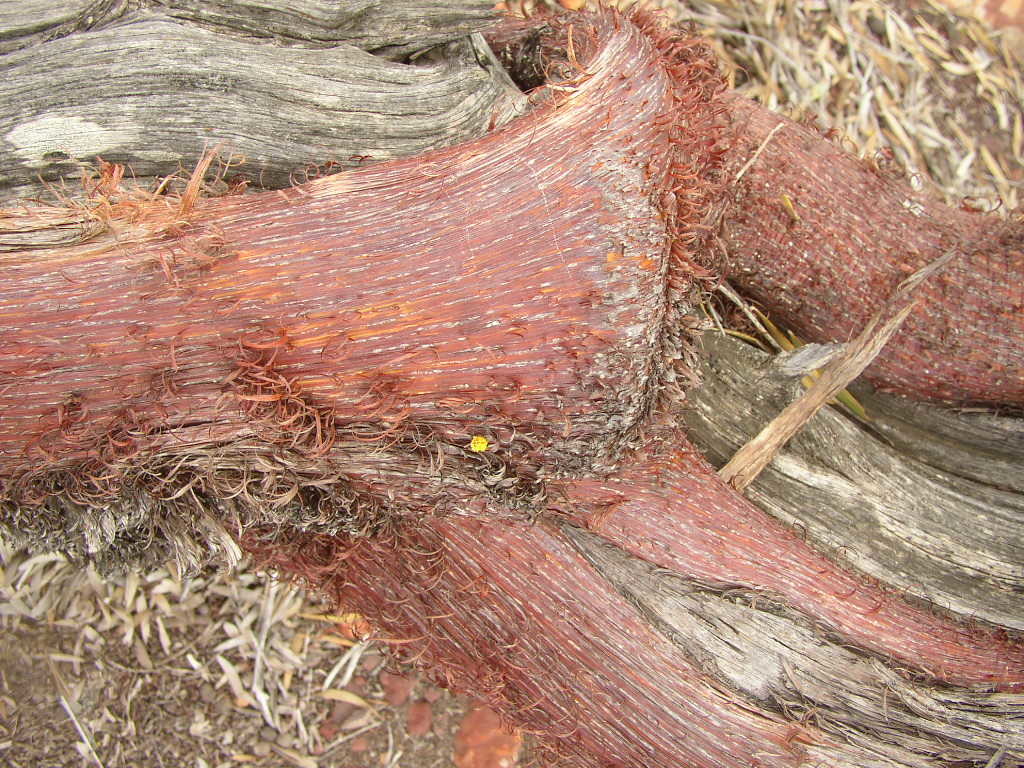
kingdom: Plantae
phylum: Tracheophyta
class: Magnoliopsida
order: Fabales
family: Fabaceae
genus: Acacia
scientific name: Acacia grasbyi
